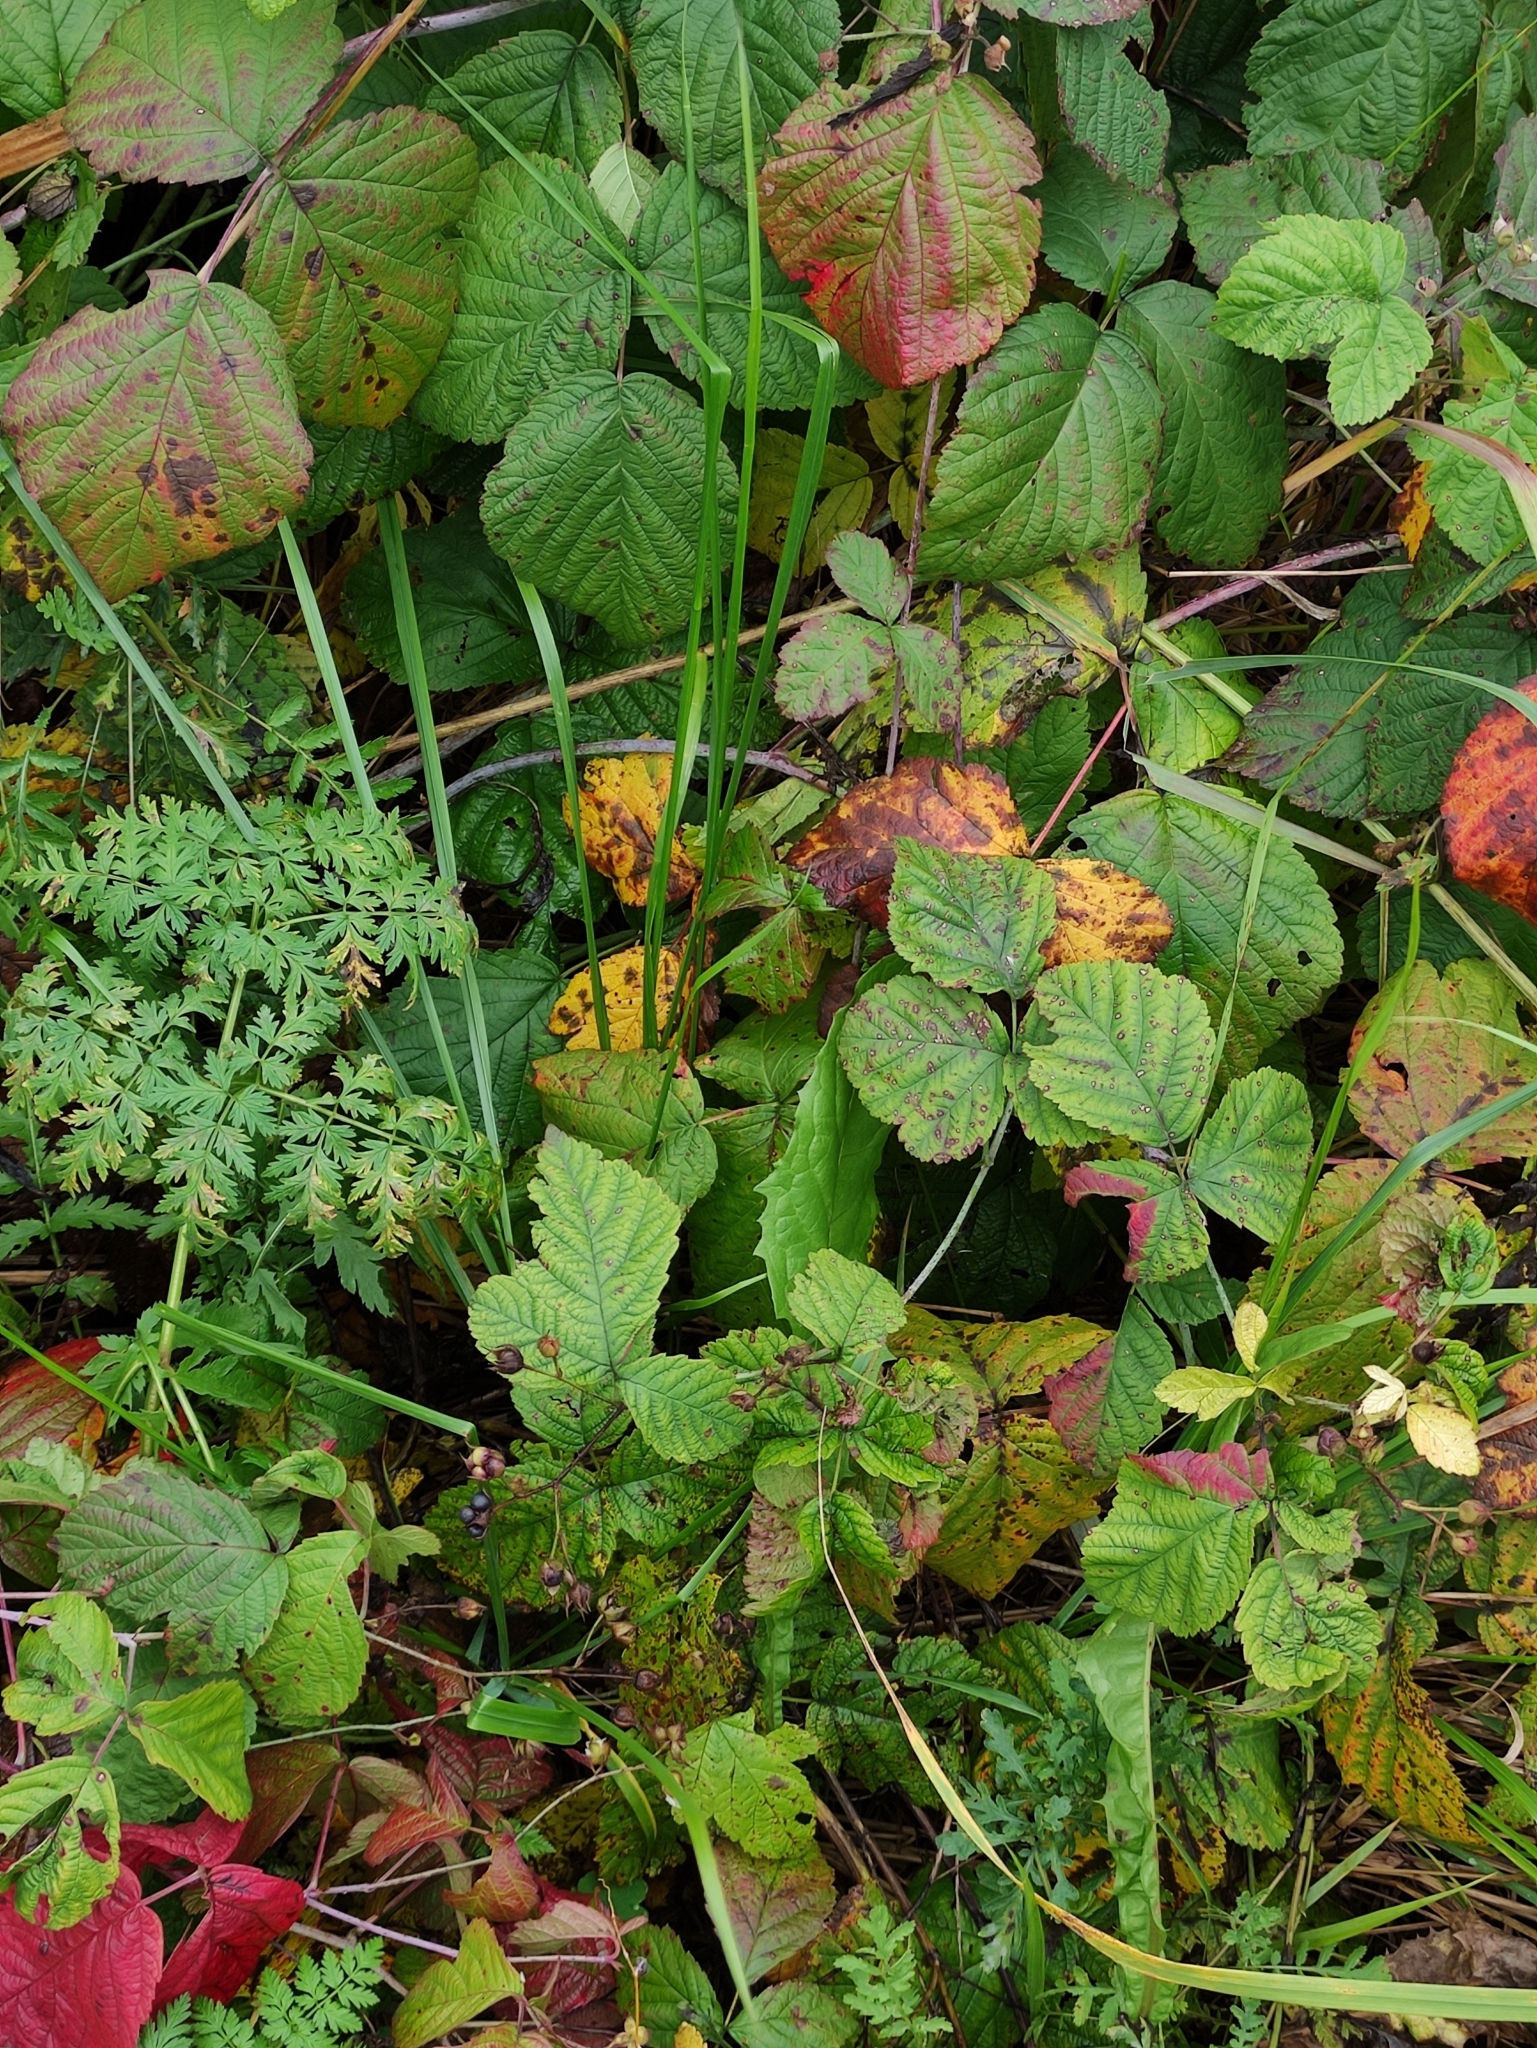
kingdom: Plantae
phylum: Tracheophyta
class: Magnoliopsida
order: Rosales
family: Rosaceae
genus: Rubus
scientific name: Rubus caesius
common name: Dewberry
